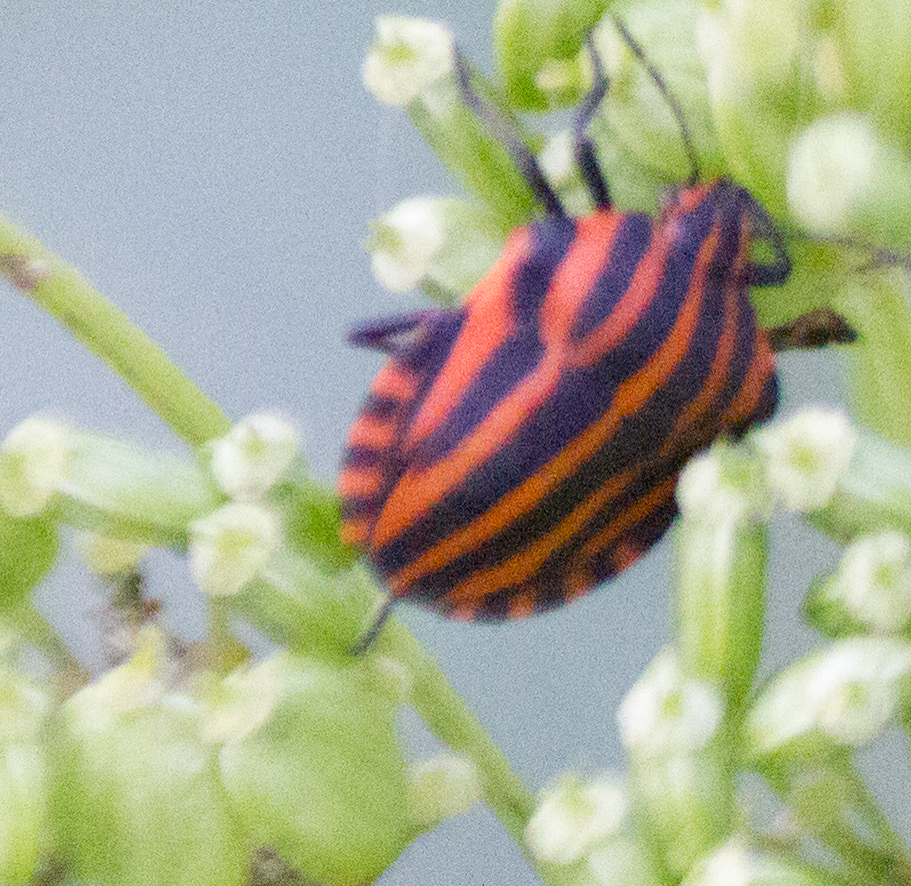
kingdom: Animalia
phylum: Arthropoda
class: Insecta
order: Hemiptera
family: Pentatomidae
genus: Graphosoma
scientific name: Graphosoma italicum
